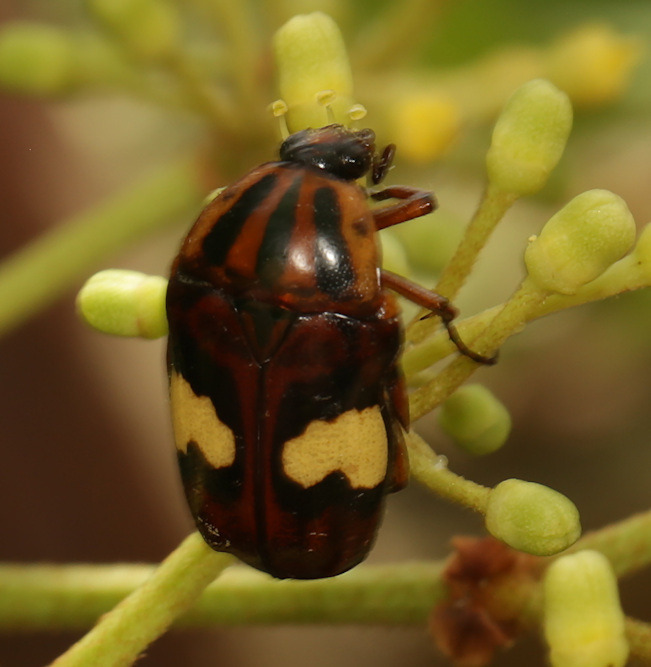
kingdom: Animalia
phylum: Arthropoda
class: Insecta
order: Coleoptera
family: Scarabaeidae
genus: Pedinorrhina
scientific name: Pedinorrhina
